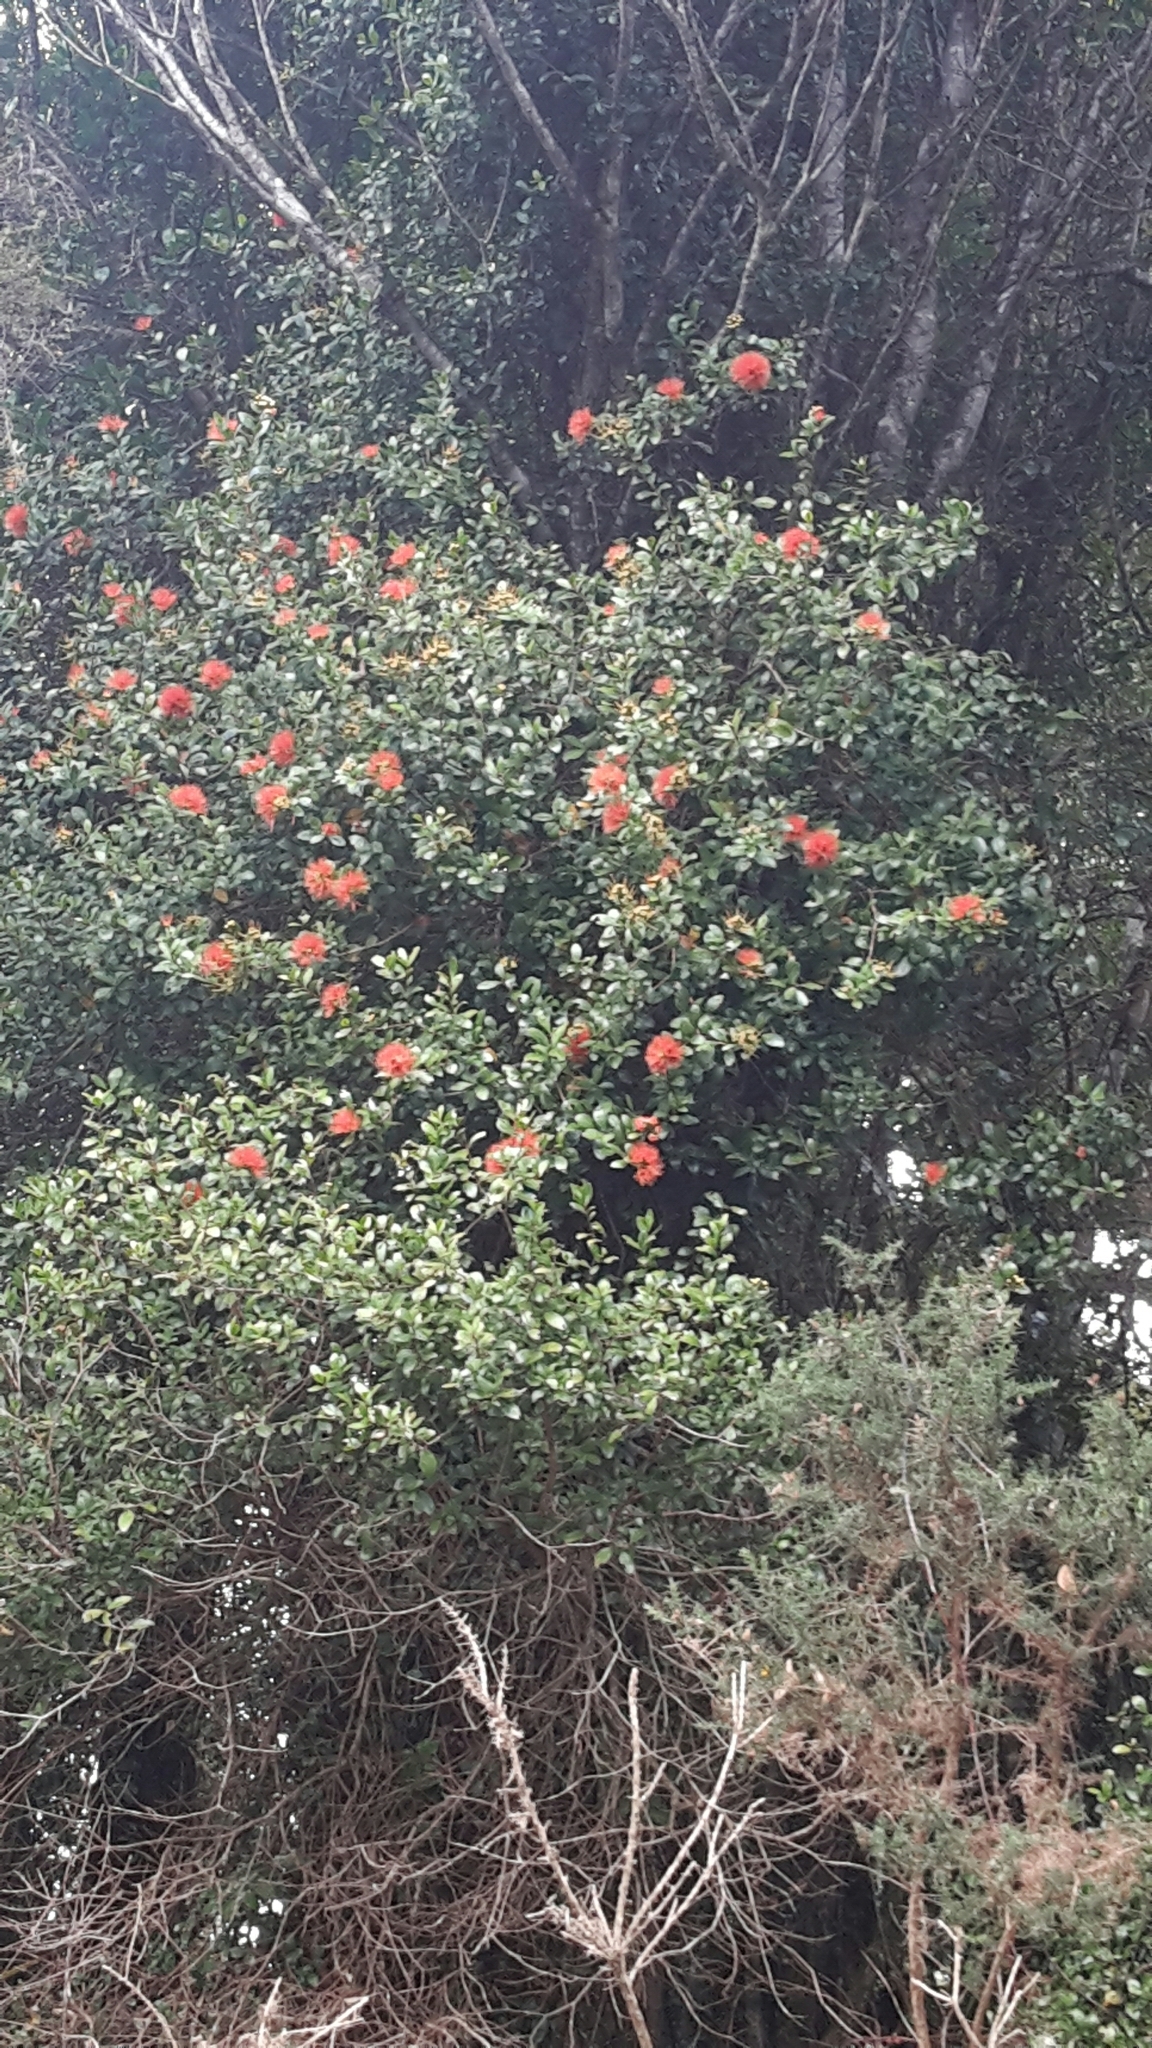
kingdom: Plantae
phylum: Tracheophyta
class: Magnoliopsida
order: Myrtales
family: Myrtaceae
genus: Metrosideros
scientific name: Metrosideros fulgens
